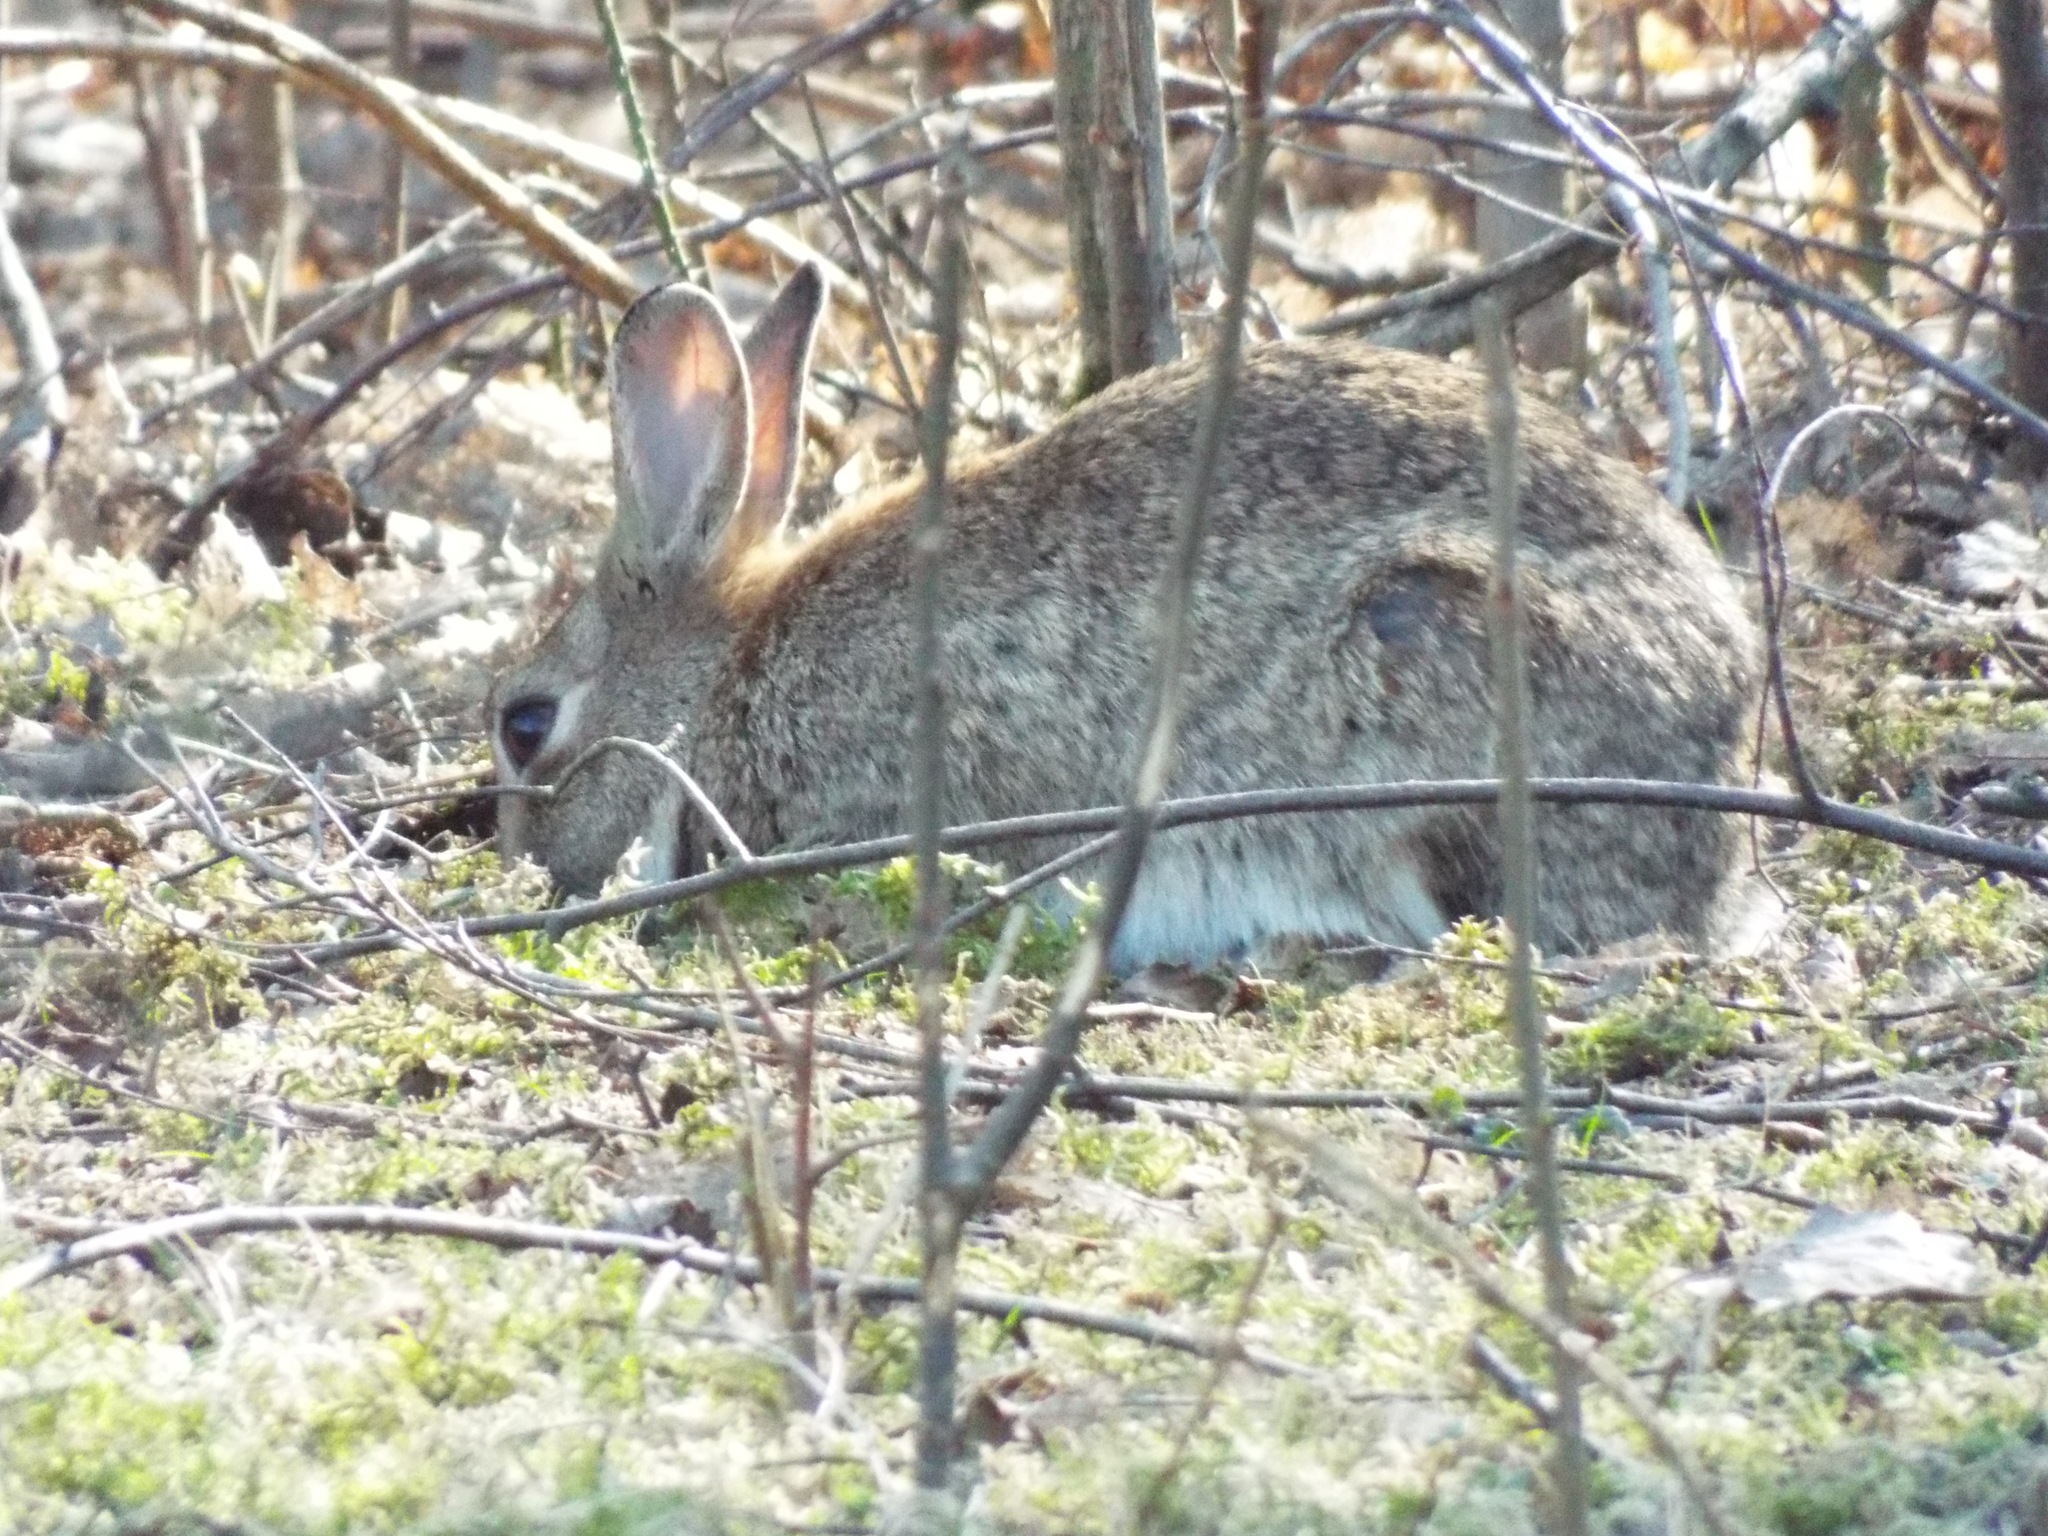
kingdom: Animalia
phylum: Chordata
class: Mammalia
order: Lagomorpha
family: Leporidae
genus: Oryctolagus
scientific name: Oryctolagus cuniculus
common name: European rabbit
